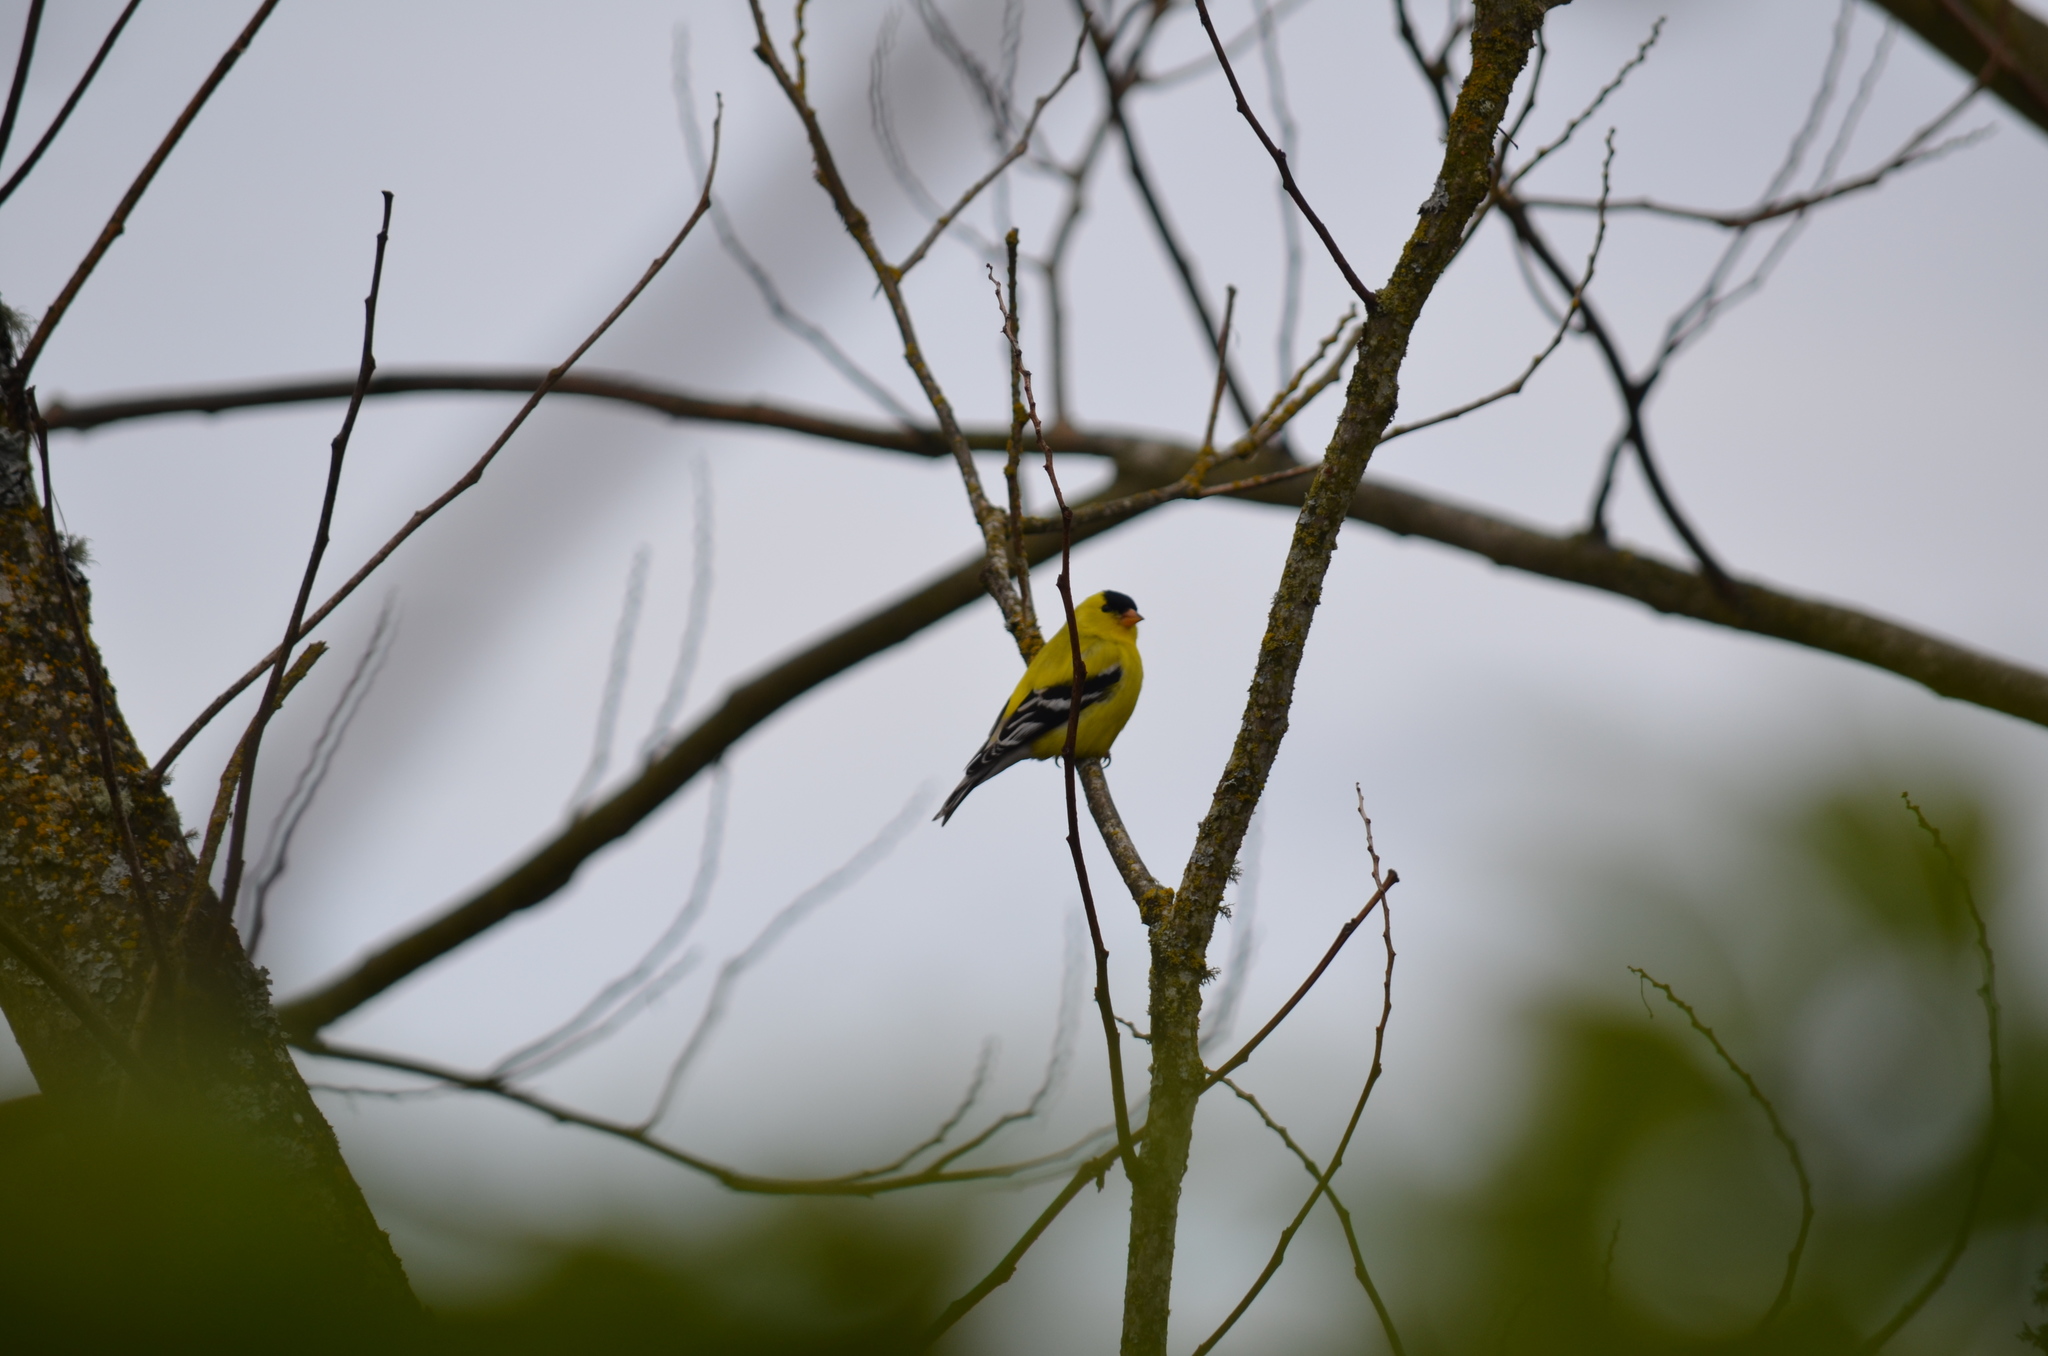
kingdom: Animalia
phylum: Chordata
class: Aves
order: Passeriformes
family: Fringillidae
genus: Spinus
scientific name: Spinus tristis
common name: American goldfinch
